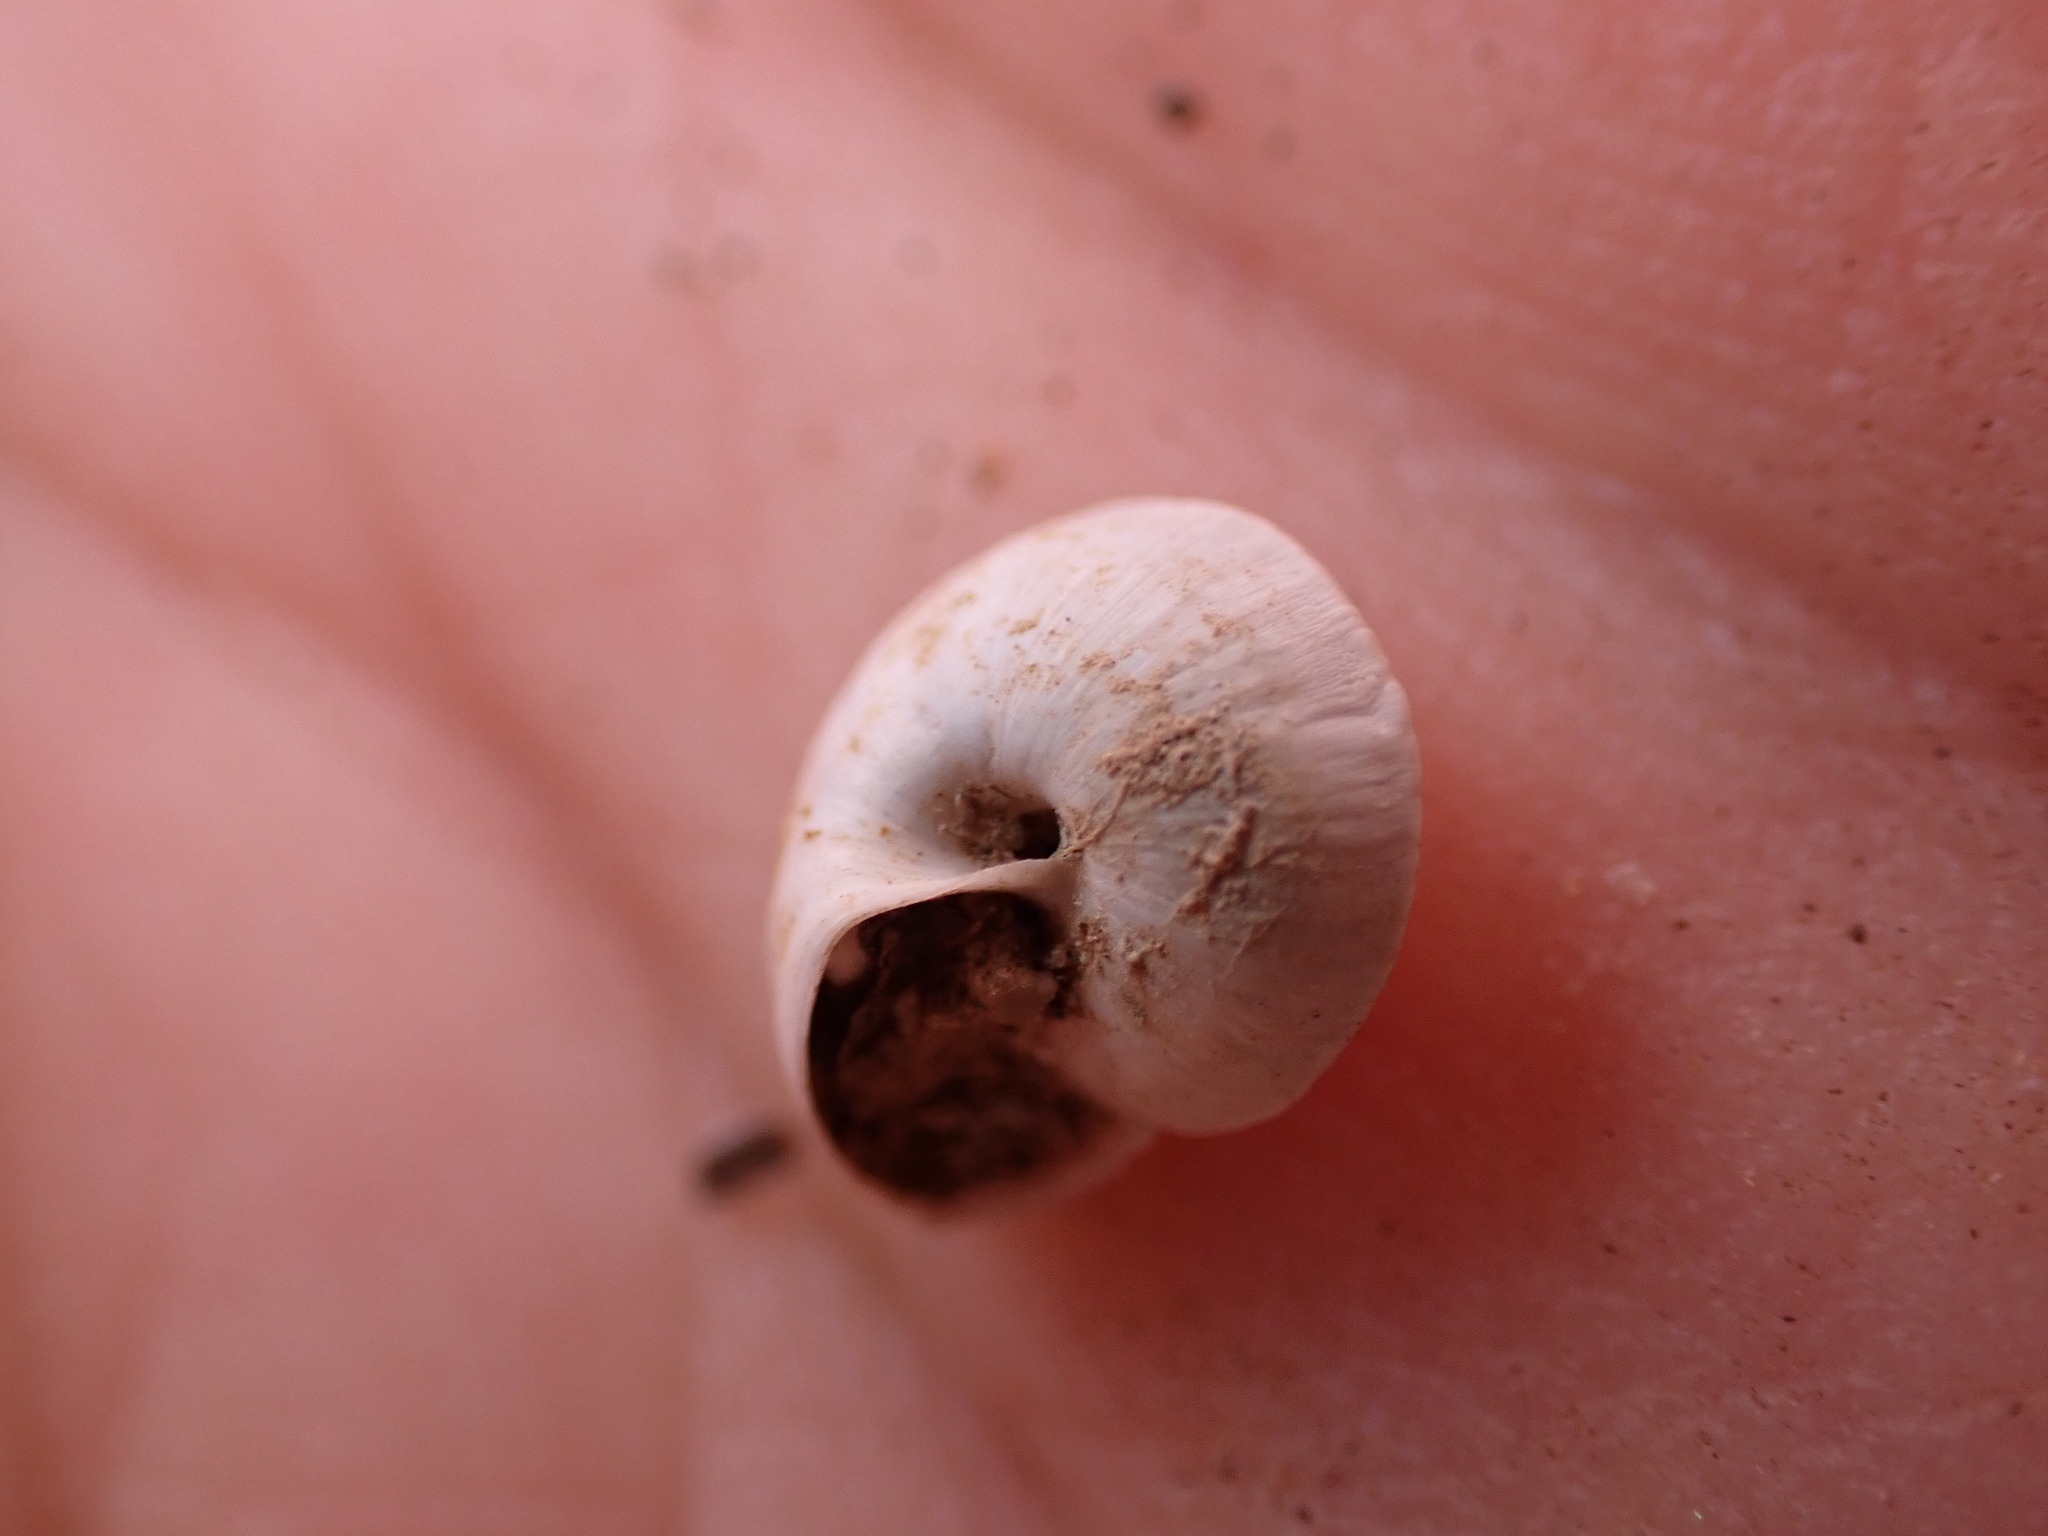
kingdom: Animalia
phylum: Mollusca
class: Gastropoda
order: Stylommatophora
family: Helicidae
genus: Theba
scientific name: Theba pisana
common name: White snail
